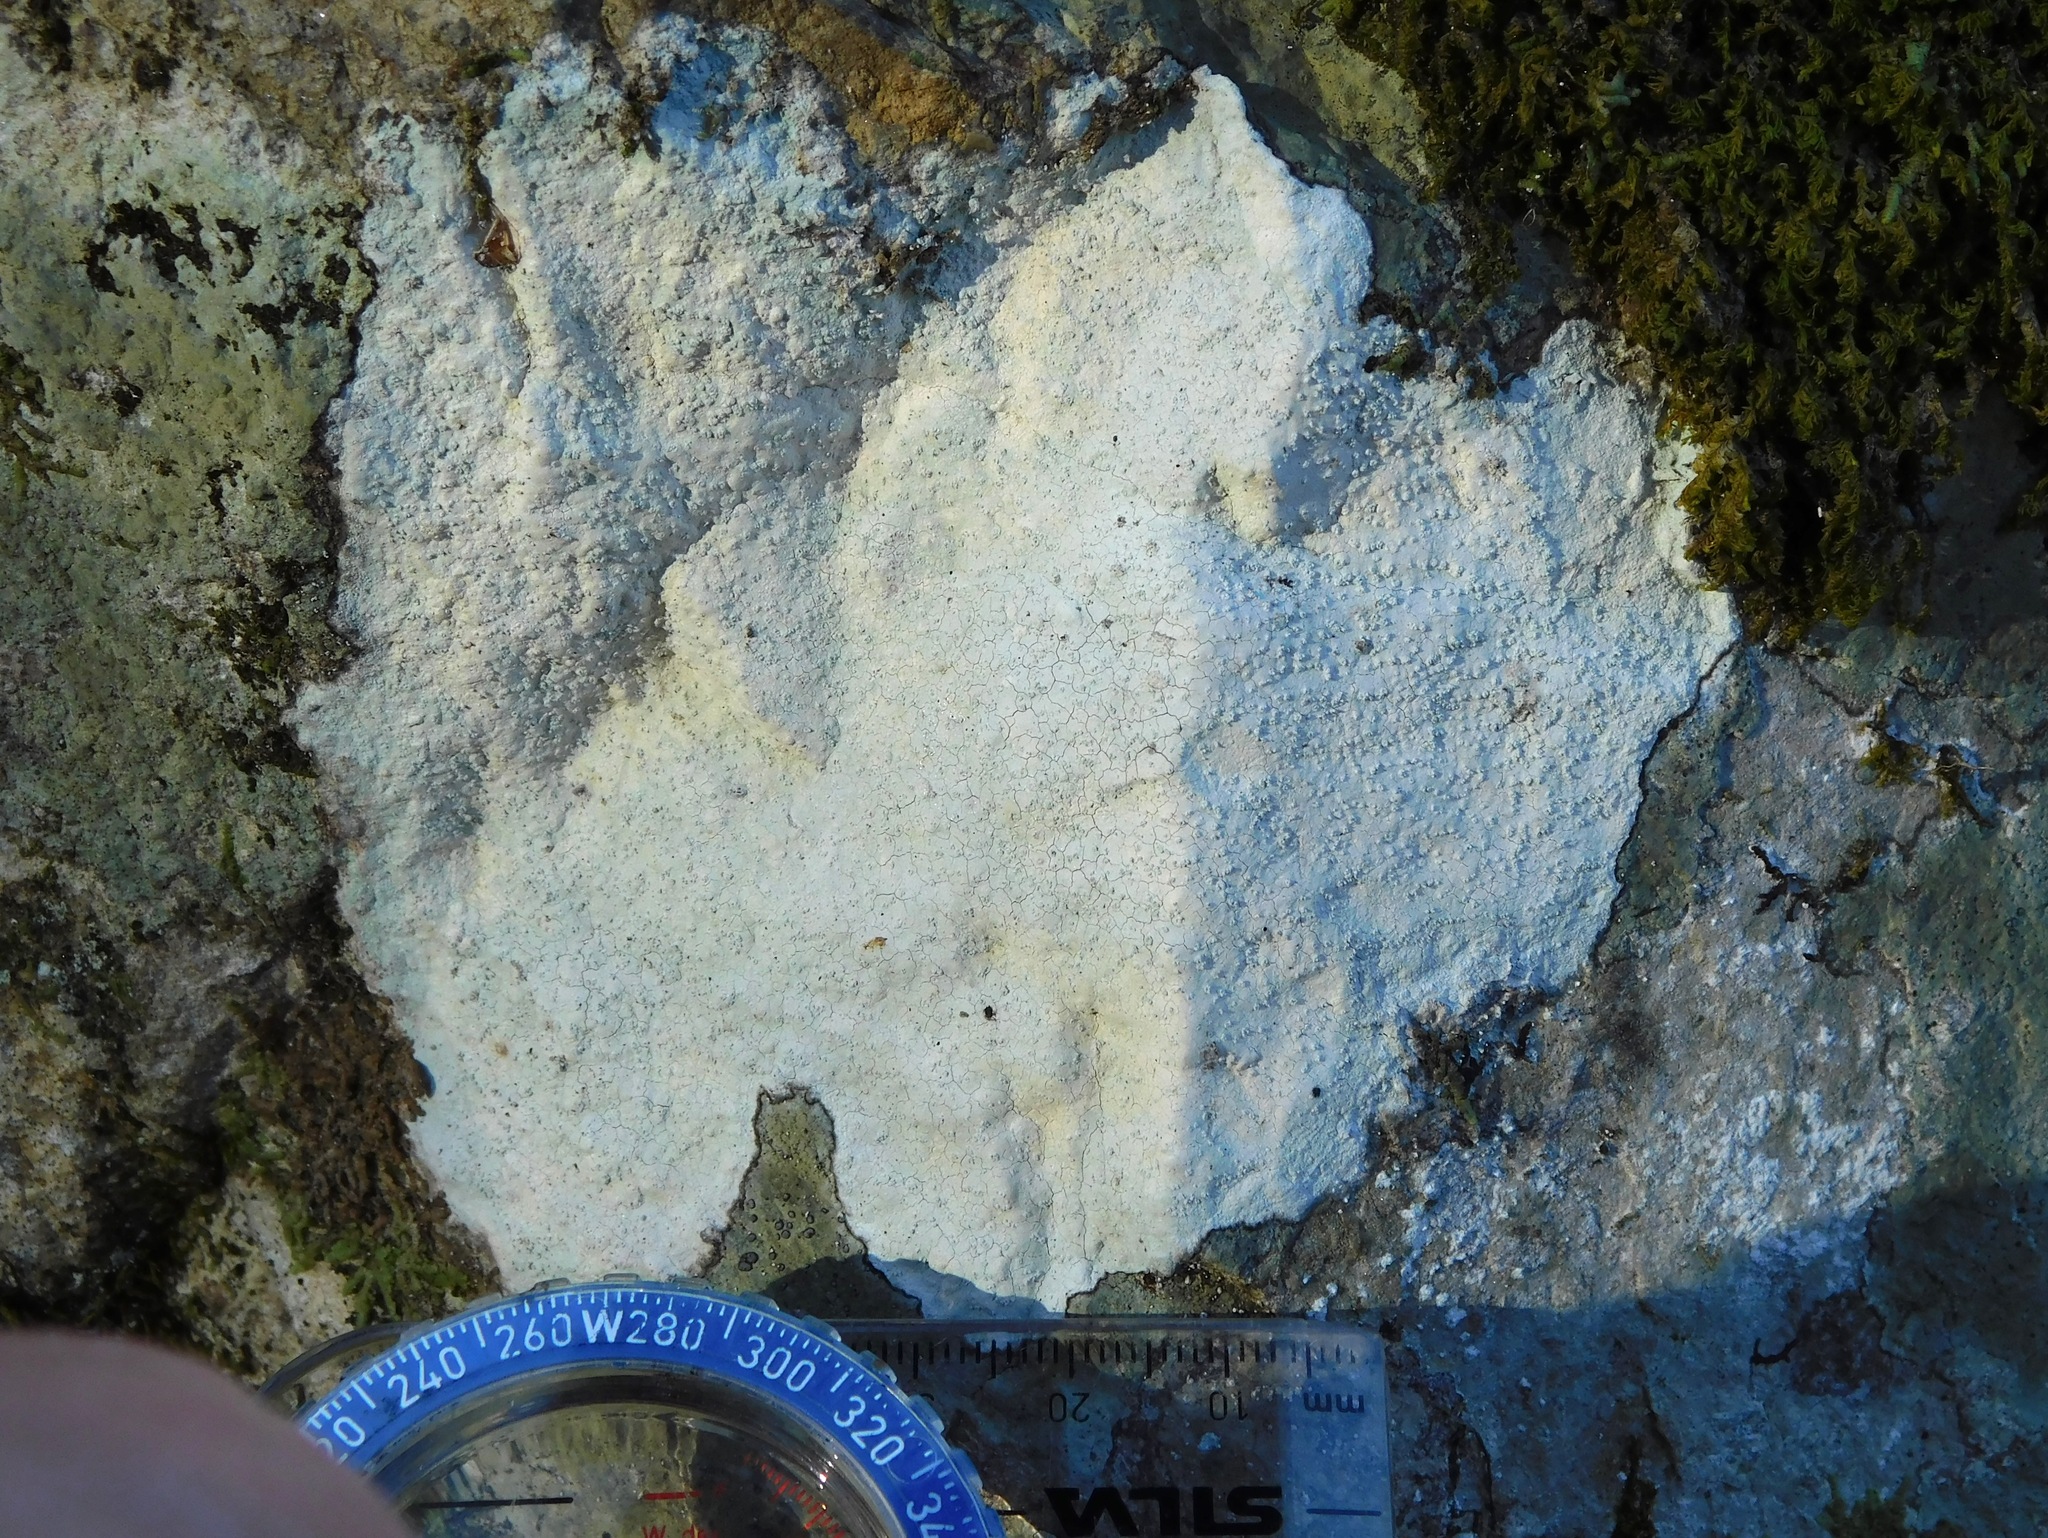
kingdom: Fungi
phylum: Ascomycota
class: Lecanoromycetes
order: Ostropales
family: Phlyctidaceae
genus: Phlyctis
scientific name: Phlyctis petraea
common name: Eggshell rock blaze
